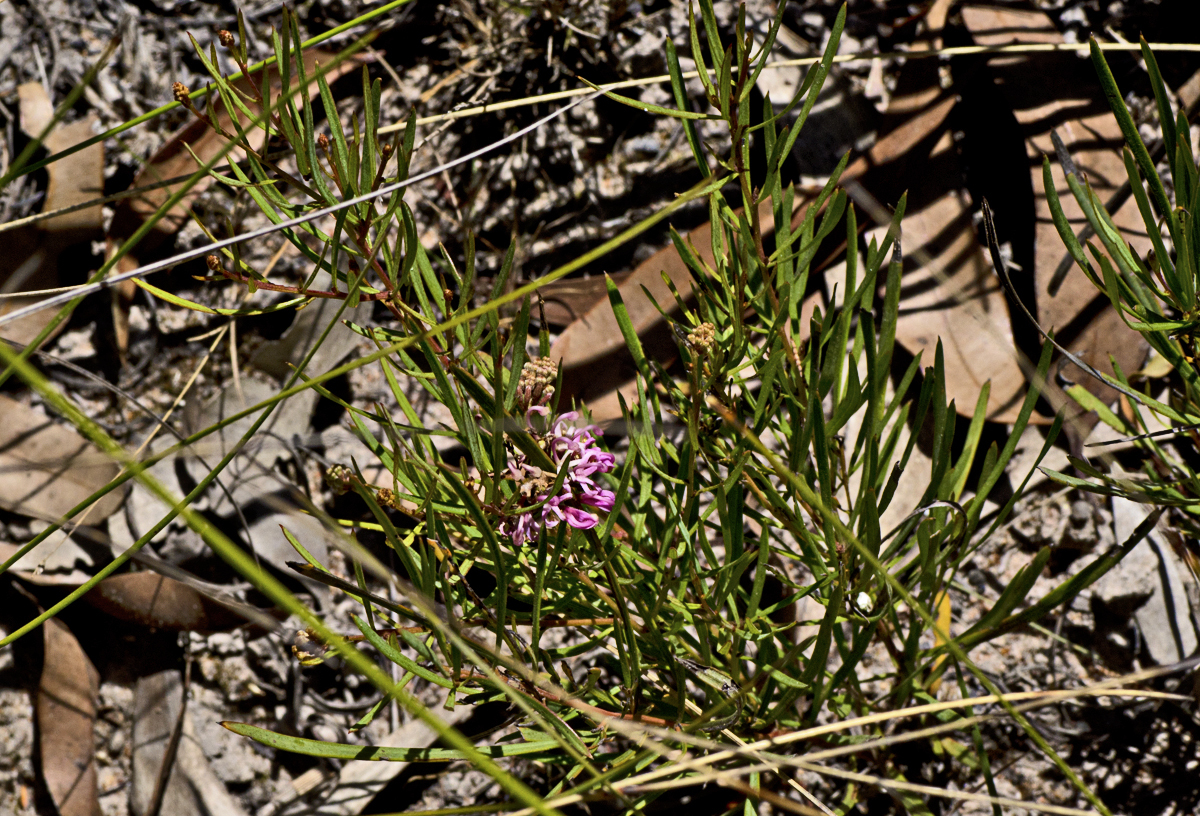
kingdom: Plantae
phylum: Tracheophyta
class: Magnoliopsida
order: Proteales
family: Proteaceae
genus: Grevillea
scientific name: Grevillea leiophylla
